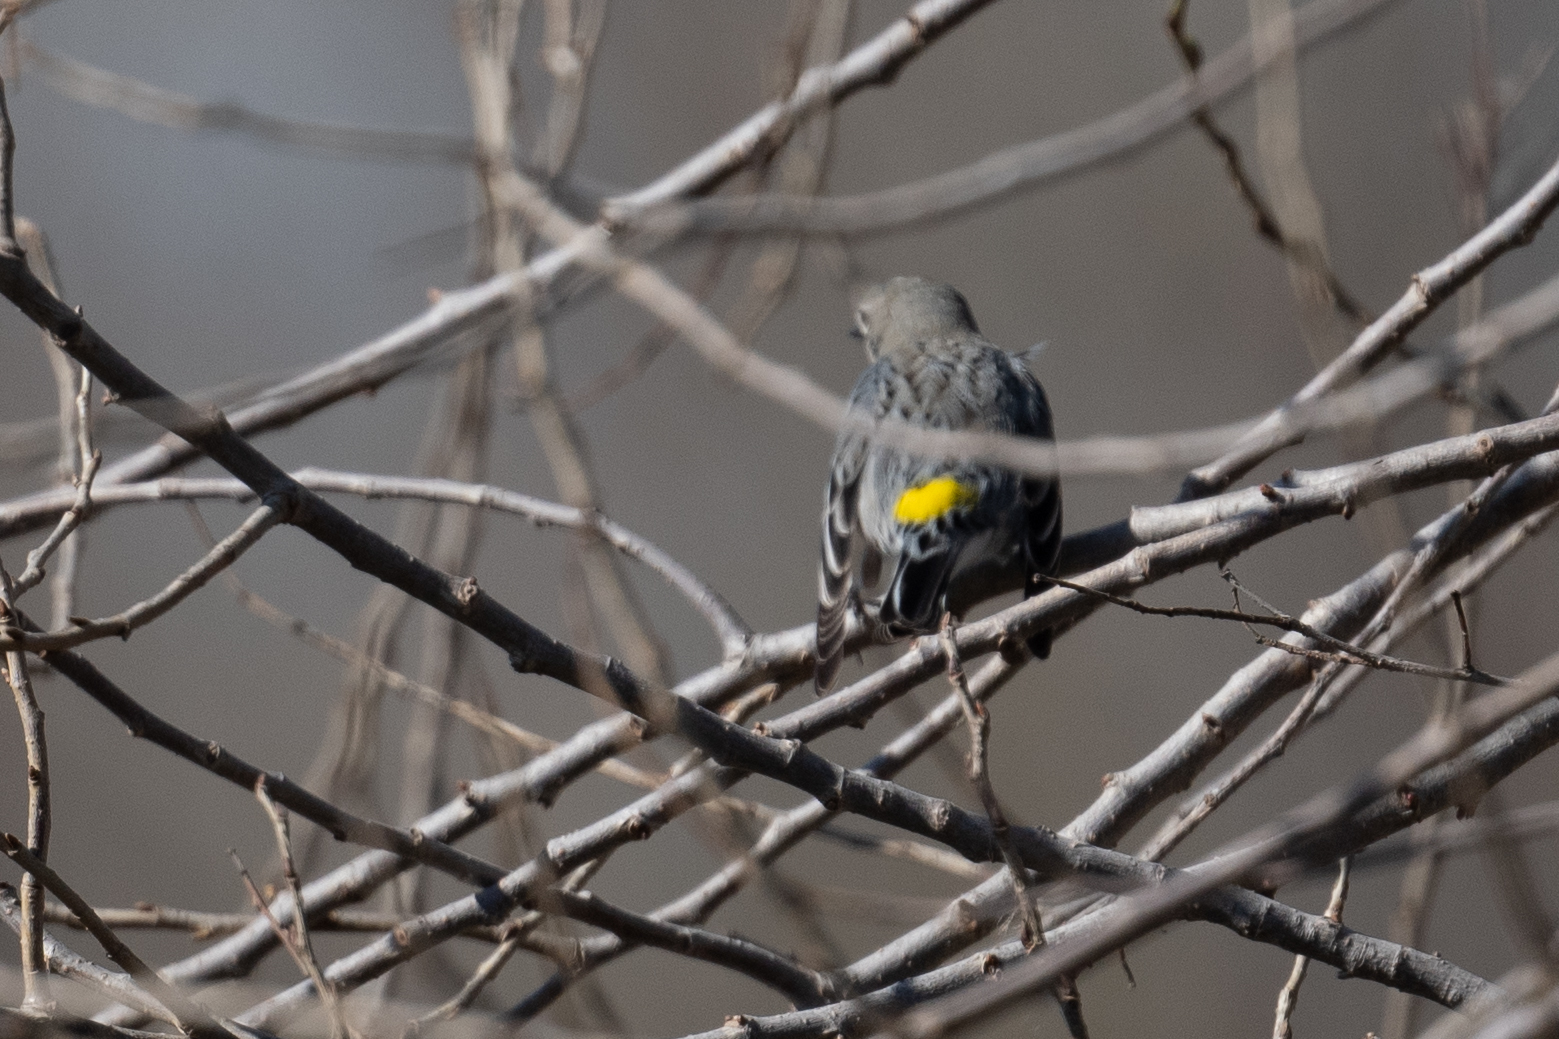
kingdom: Animalia
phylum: Chordata
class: Aves
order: Passeriformes
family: Parulidae
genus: Setophaga
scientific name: Setophaga coronata
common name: Myrtle warbler
